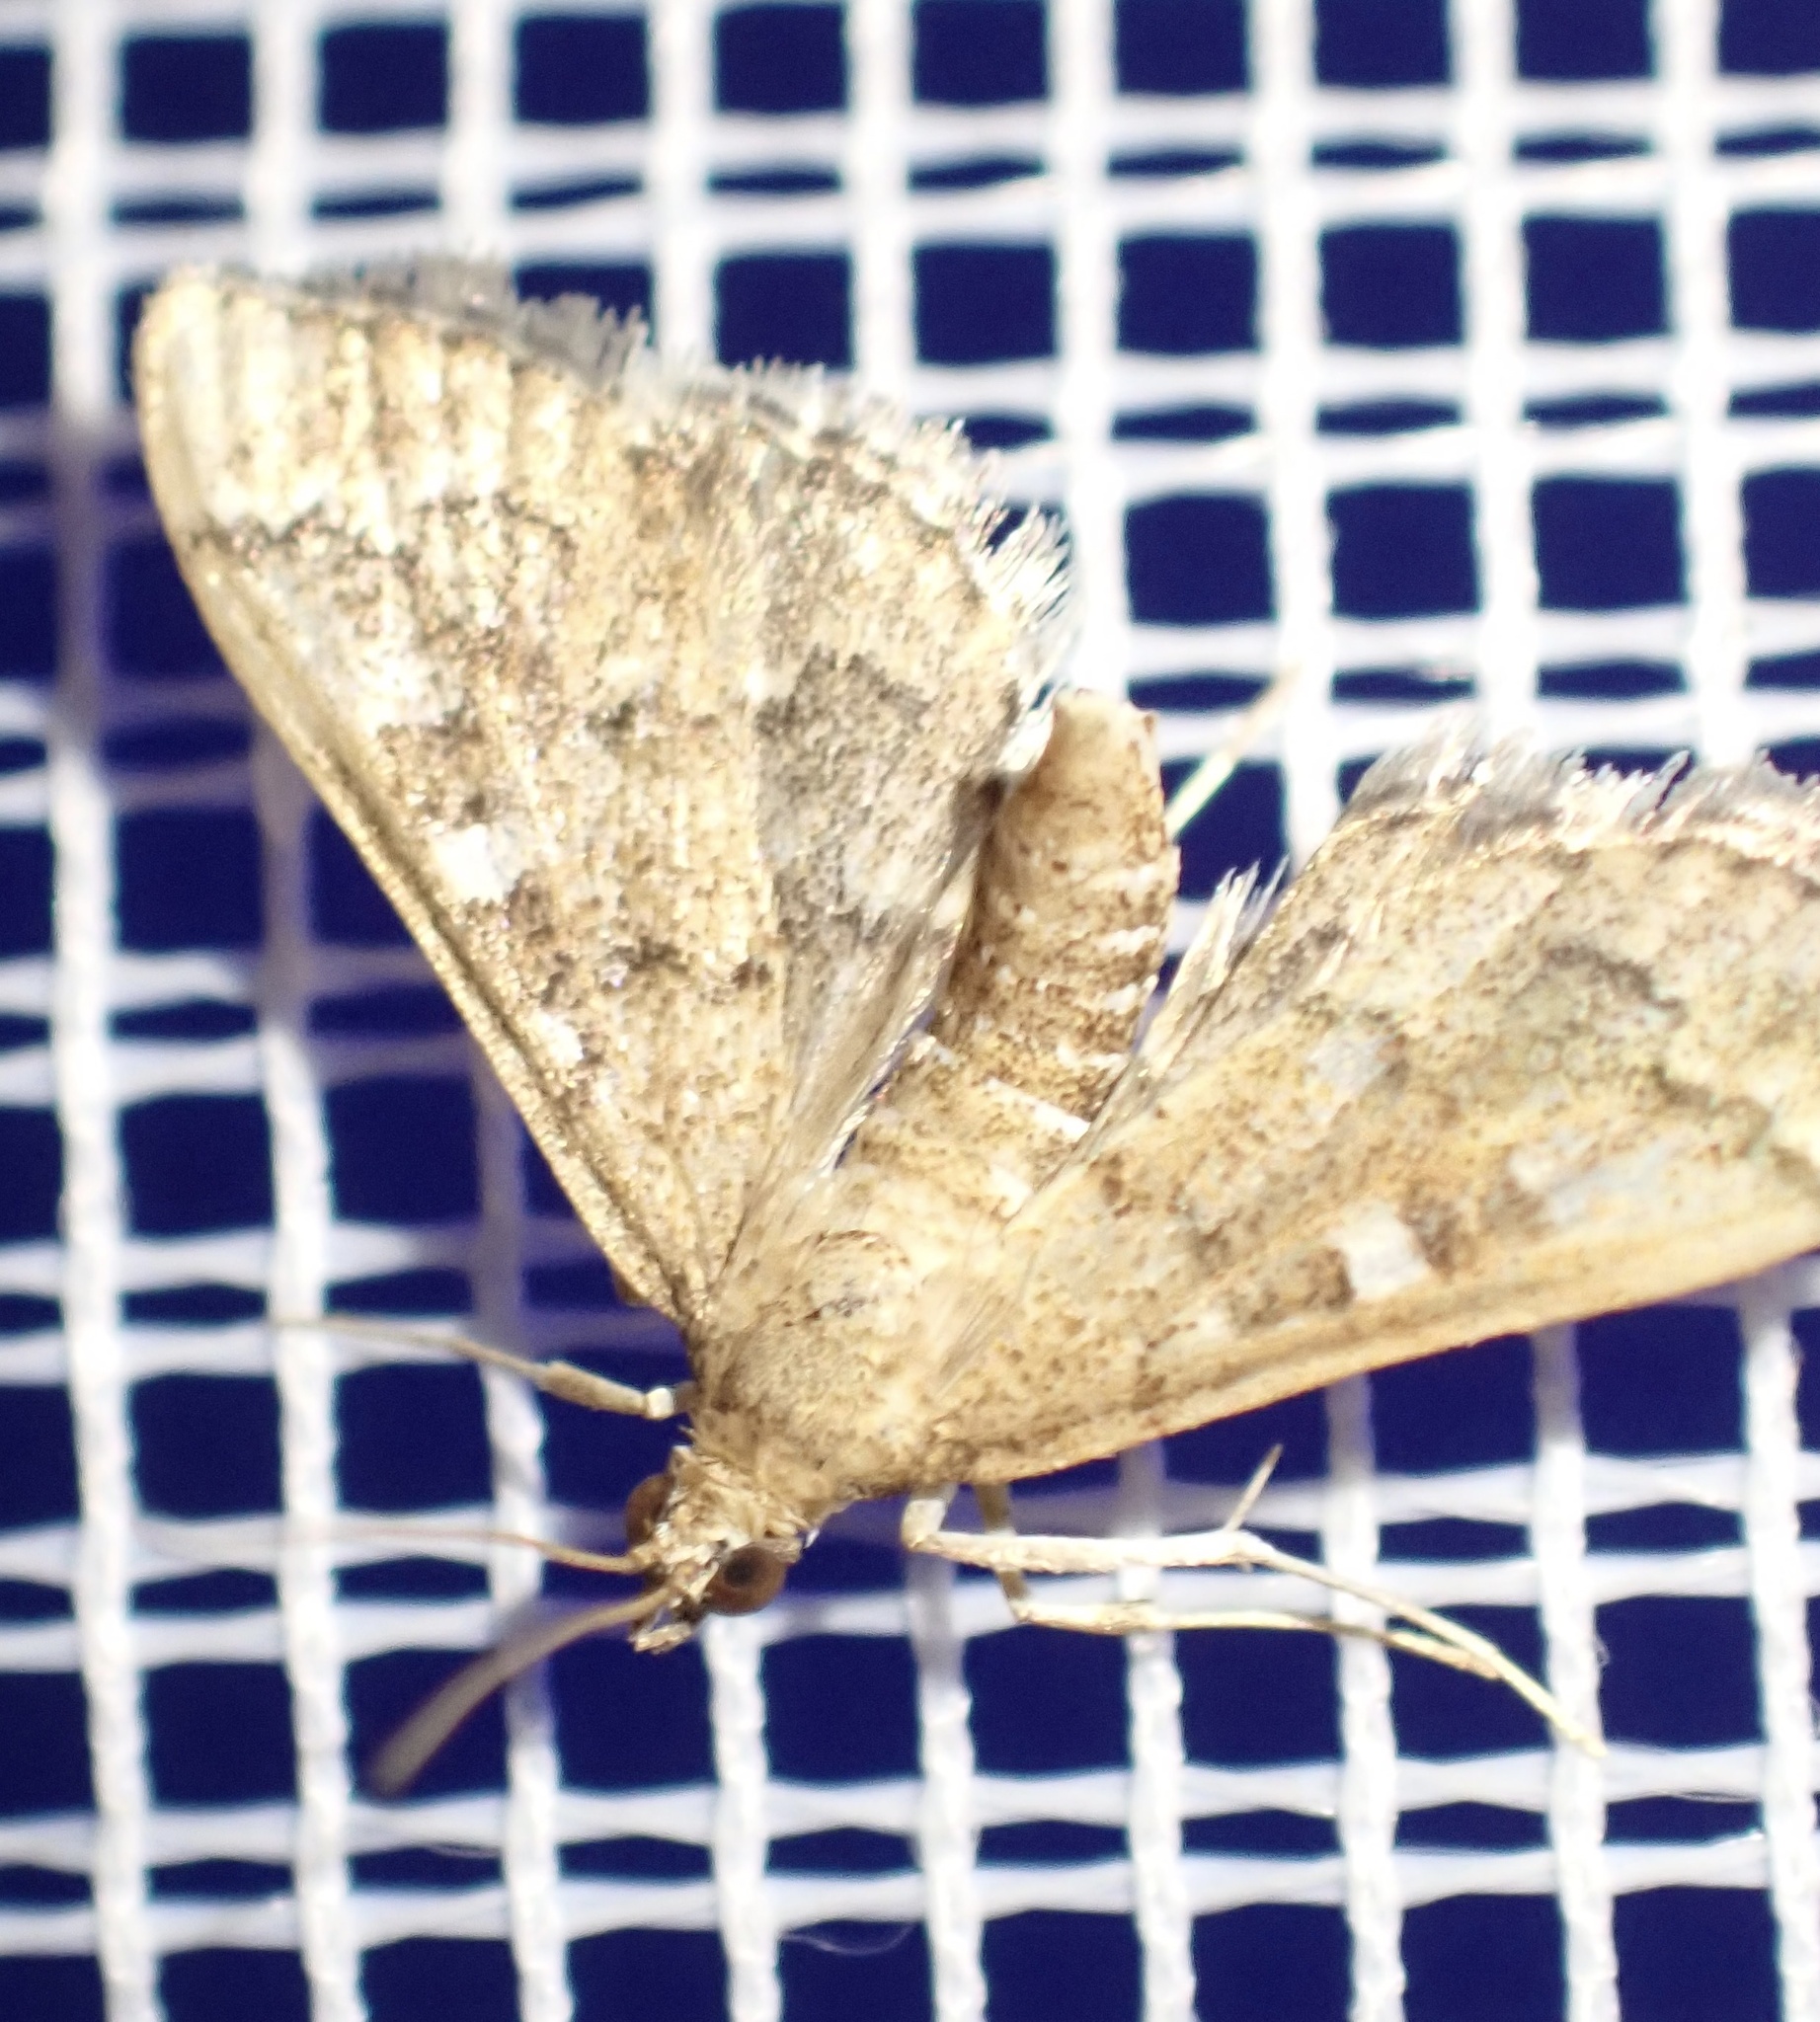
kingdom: Animalia
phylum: Arthropoda
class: Insecta
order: Lepidoptera
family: Crambidae
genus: Nacoleia
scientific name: Nacoleia rhoeoalis
